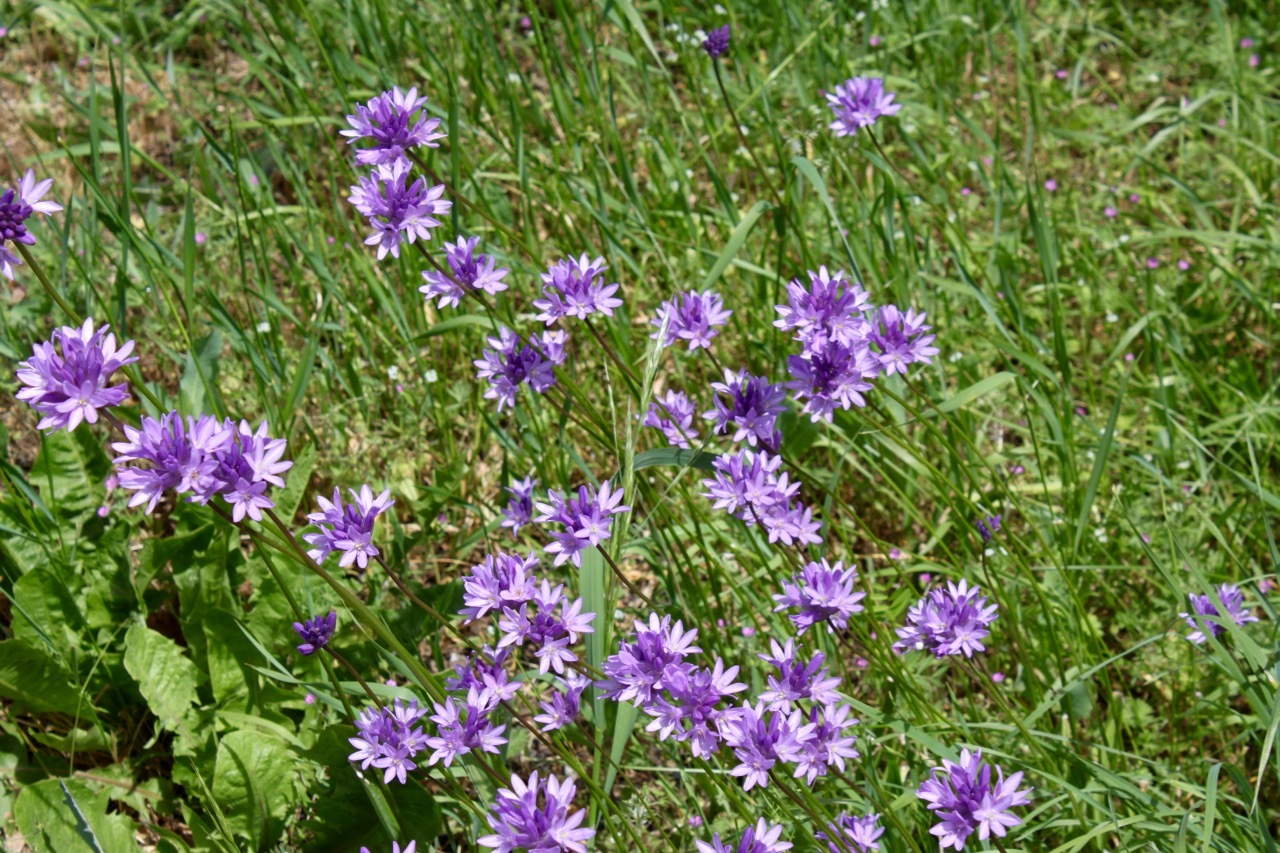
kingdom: Plantae
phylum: Tracheophyta
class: Liliopsida
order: Asparagales
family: Asparagaceae
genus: Dichelostemma
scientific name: Dichelostemma congestum
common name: Fork-tooth ookow
